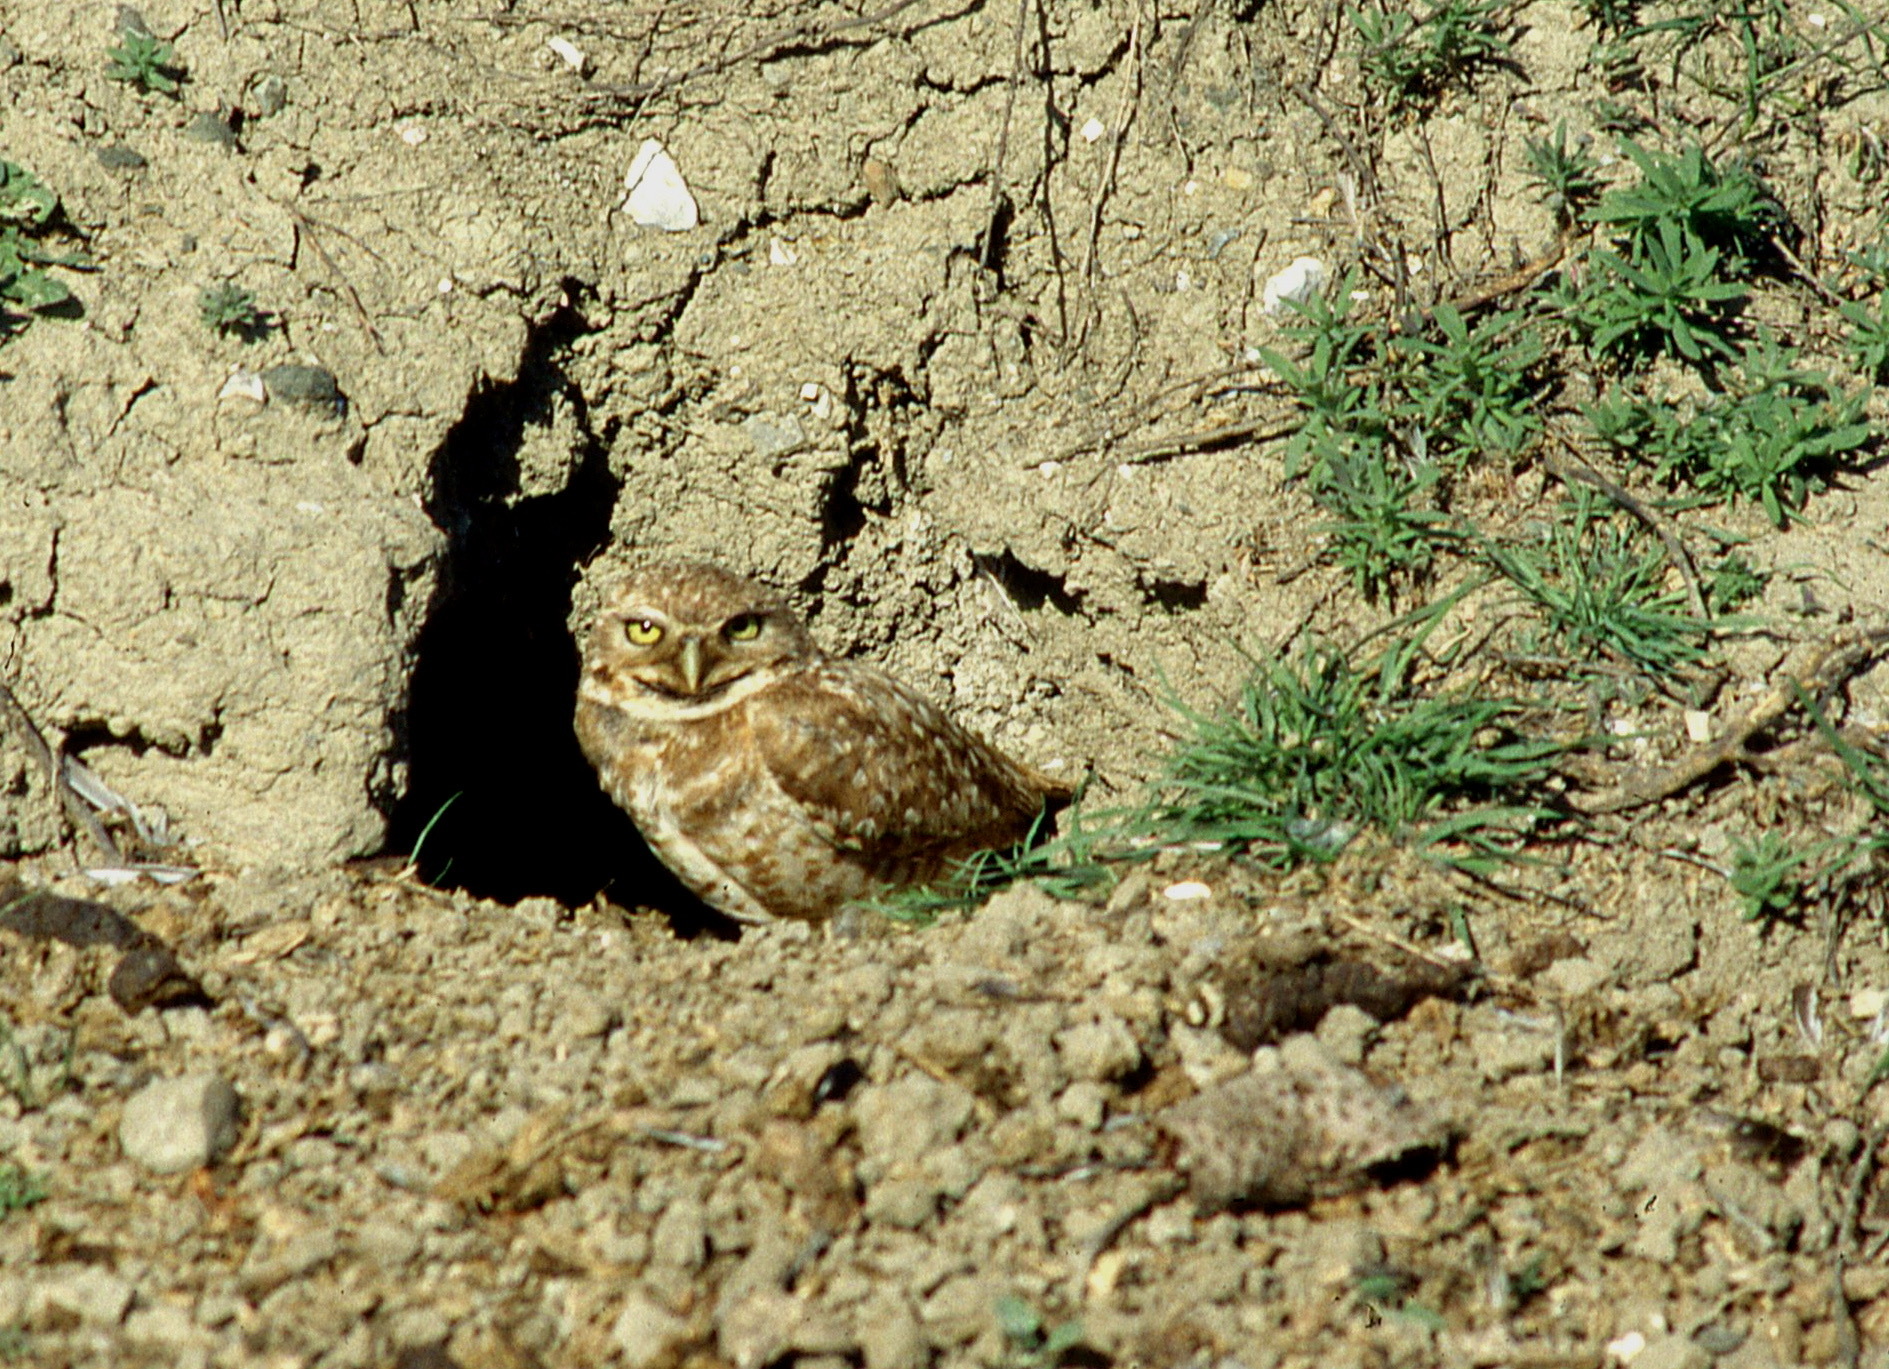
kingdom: Animalia
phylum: Chordata
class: Aves
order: Strigiformes
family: Strigidae
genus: Athene
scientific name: Athene cunicularia
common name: Burrowing owl
